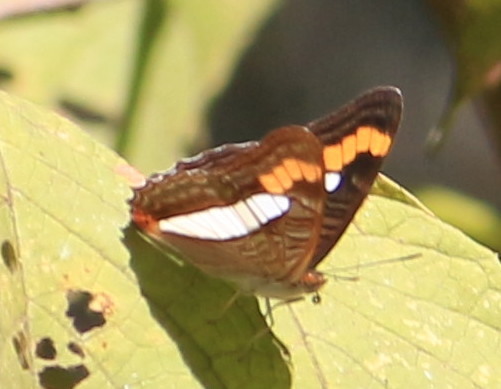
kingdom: Animalia
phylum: Arthropoda
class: Insecta
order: Lepidoptera
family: Nymphalidae
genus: Limenitis
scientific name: Limenitis pithys
